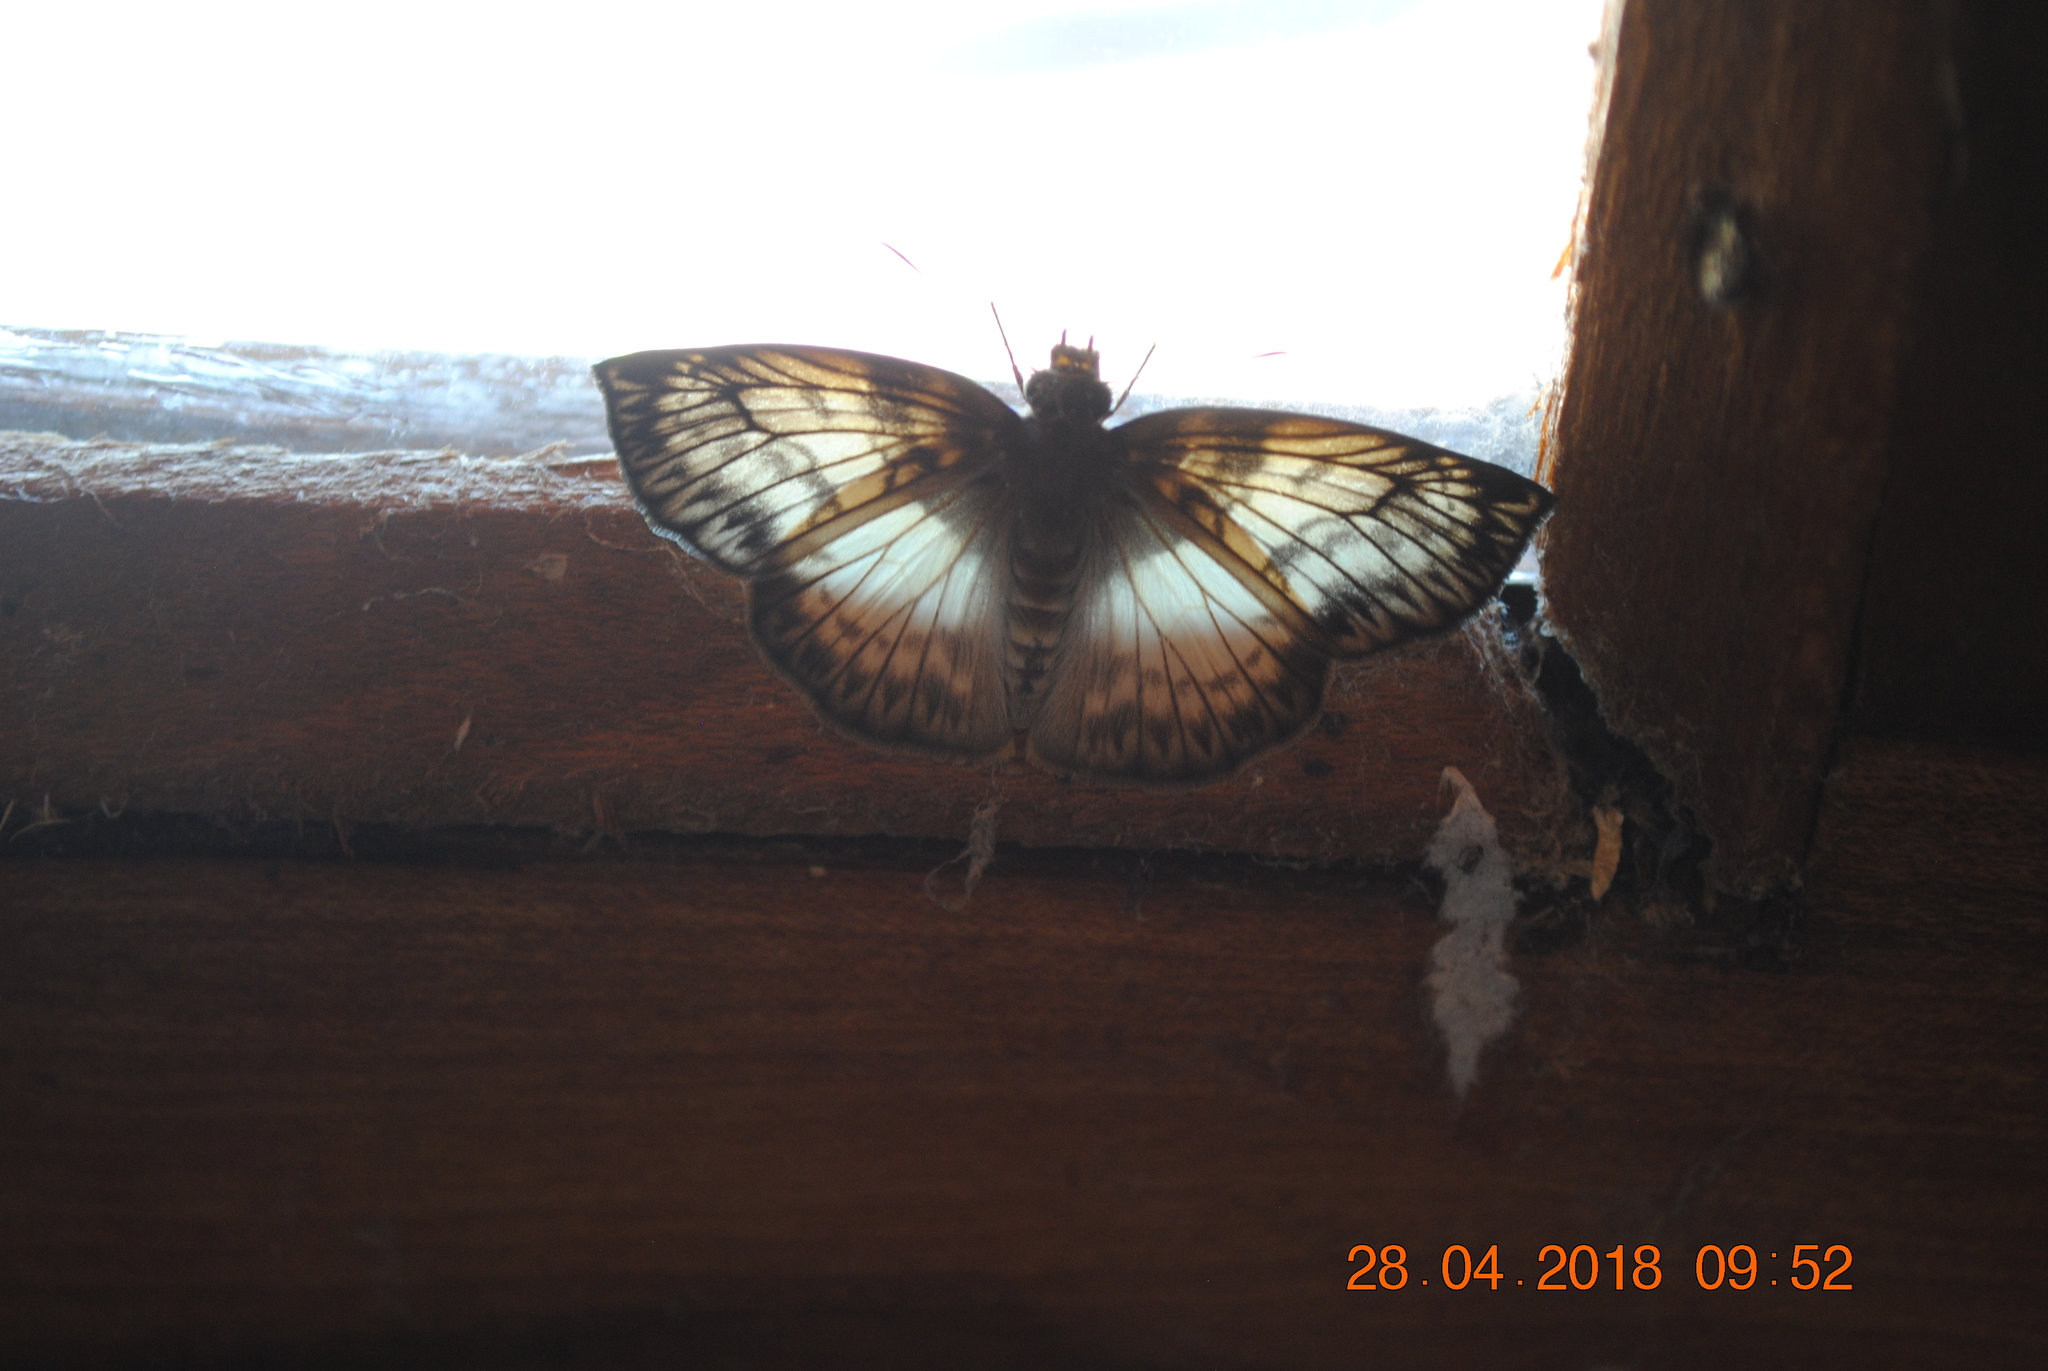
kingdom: Animalia
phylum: Arthropoda
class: Insecta
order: Lepidoptera
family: Hesperiidae
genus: Mylon
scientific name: Mylon maimon
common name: Common mylon
